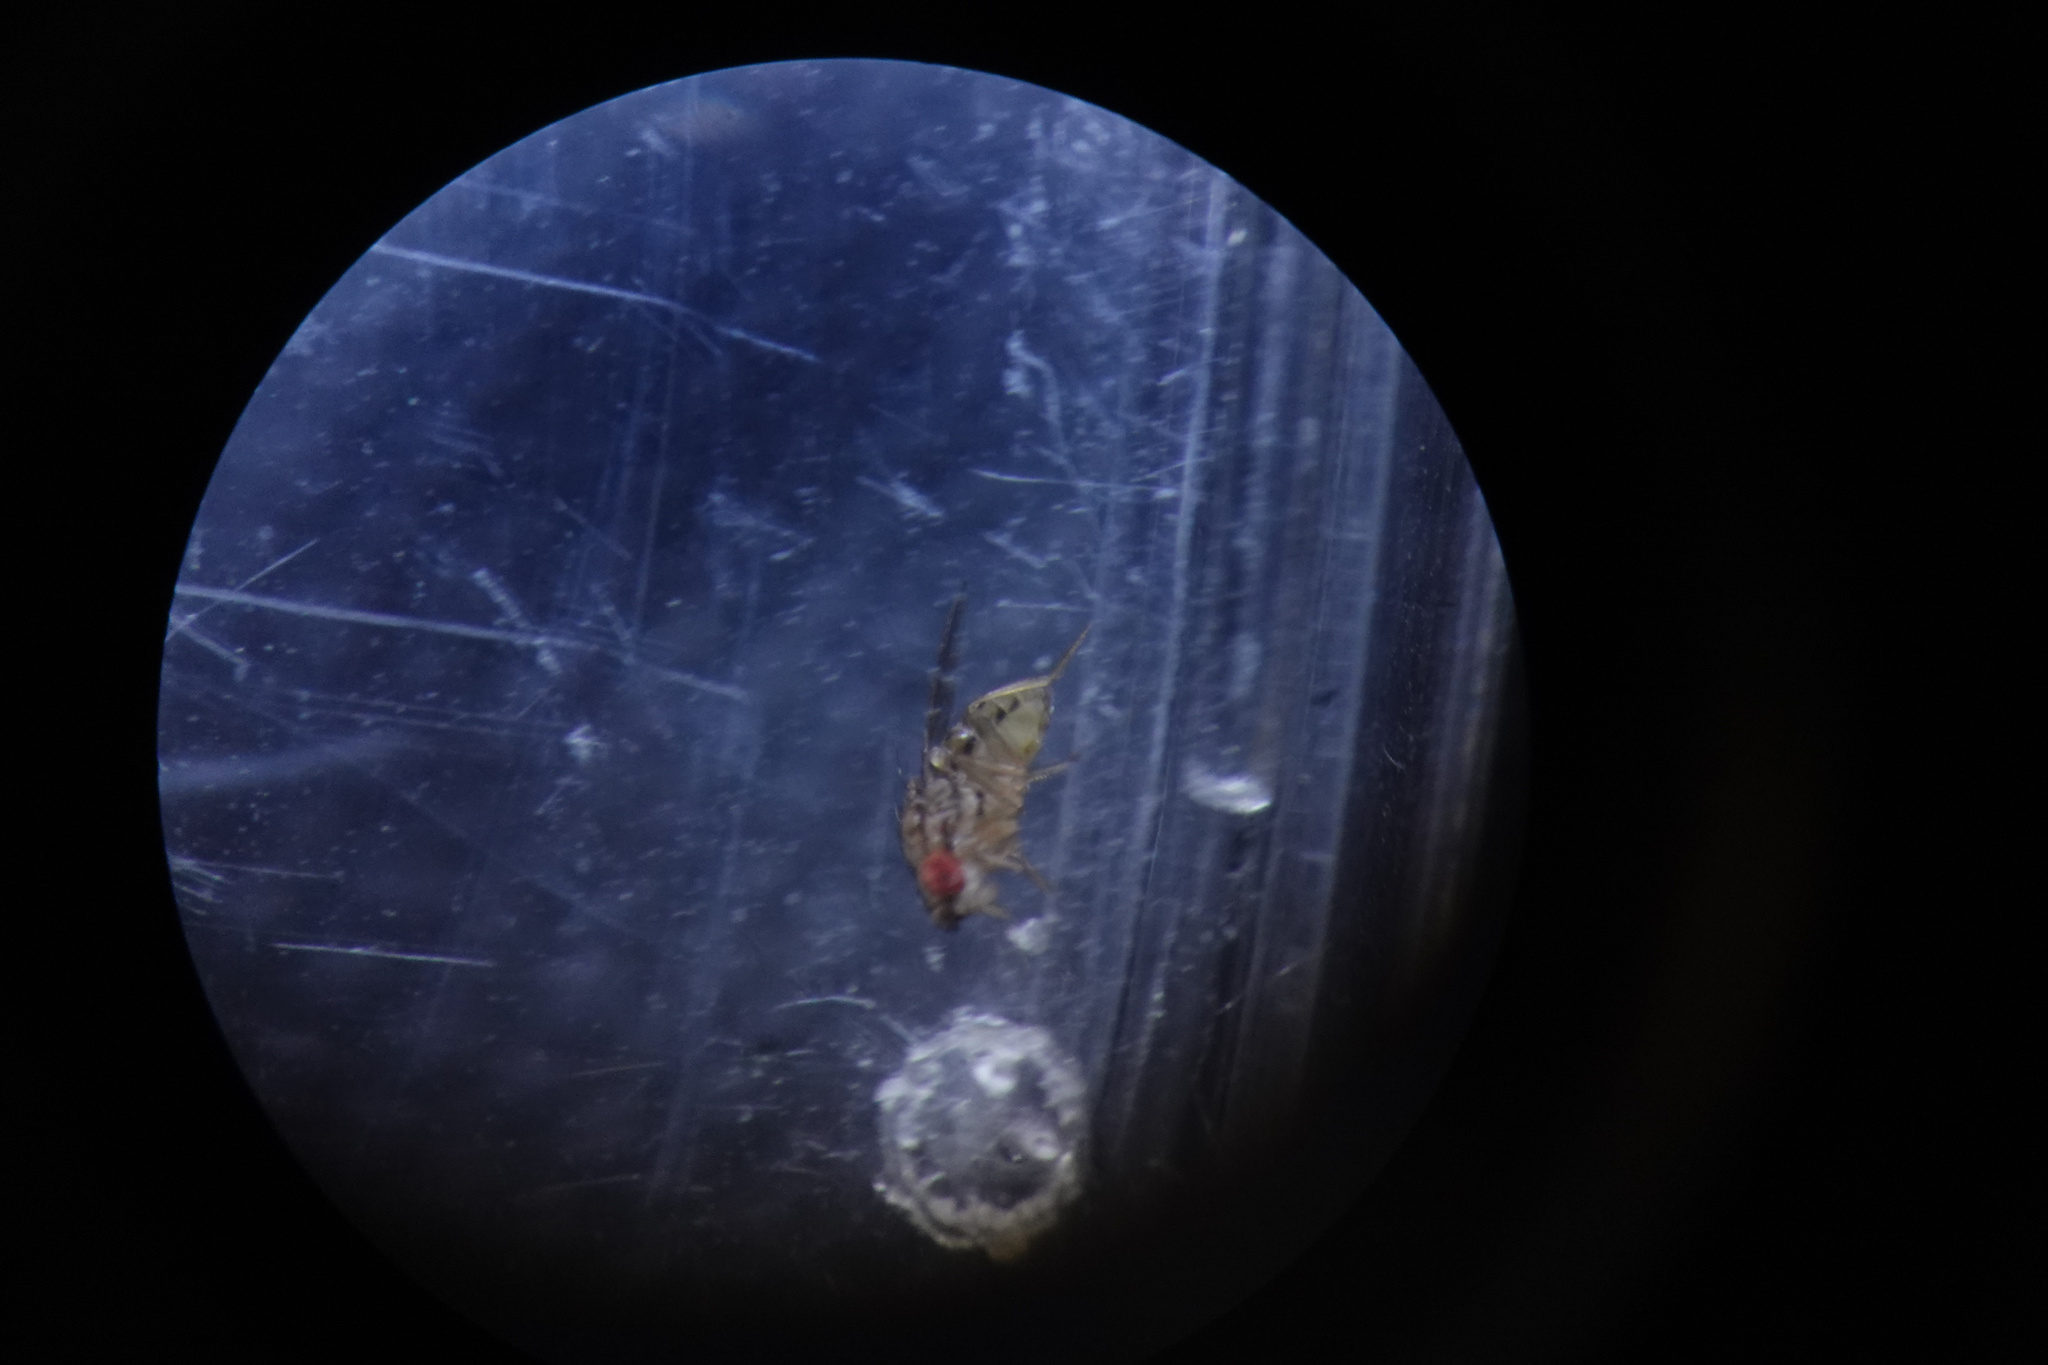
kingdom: Animalia
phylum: Arthropoda
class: Insecta
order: Diptera
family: Drosophilidae
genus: Drosophila
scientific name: Drosophila busckii
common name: Pomace fly
